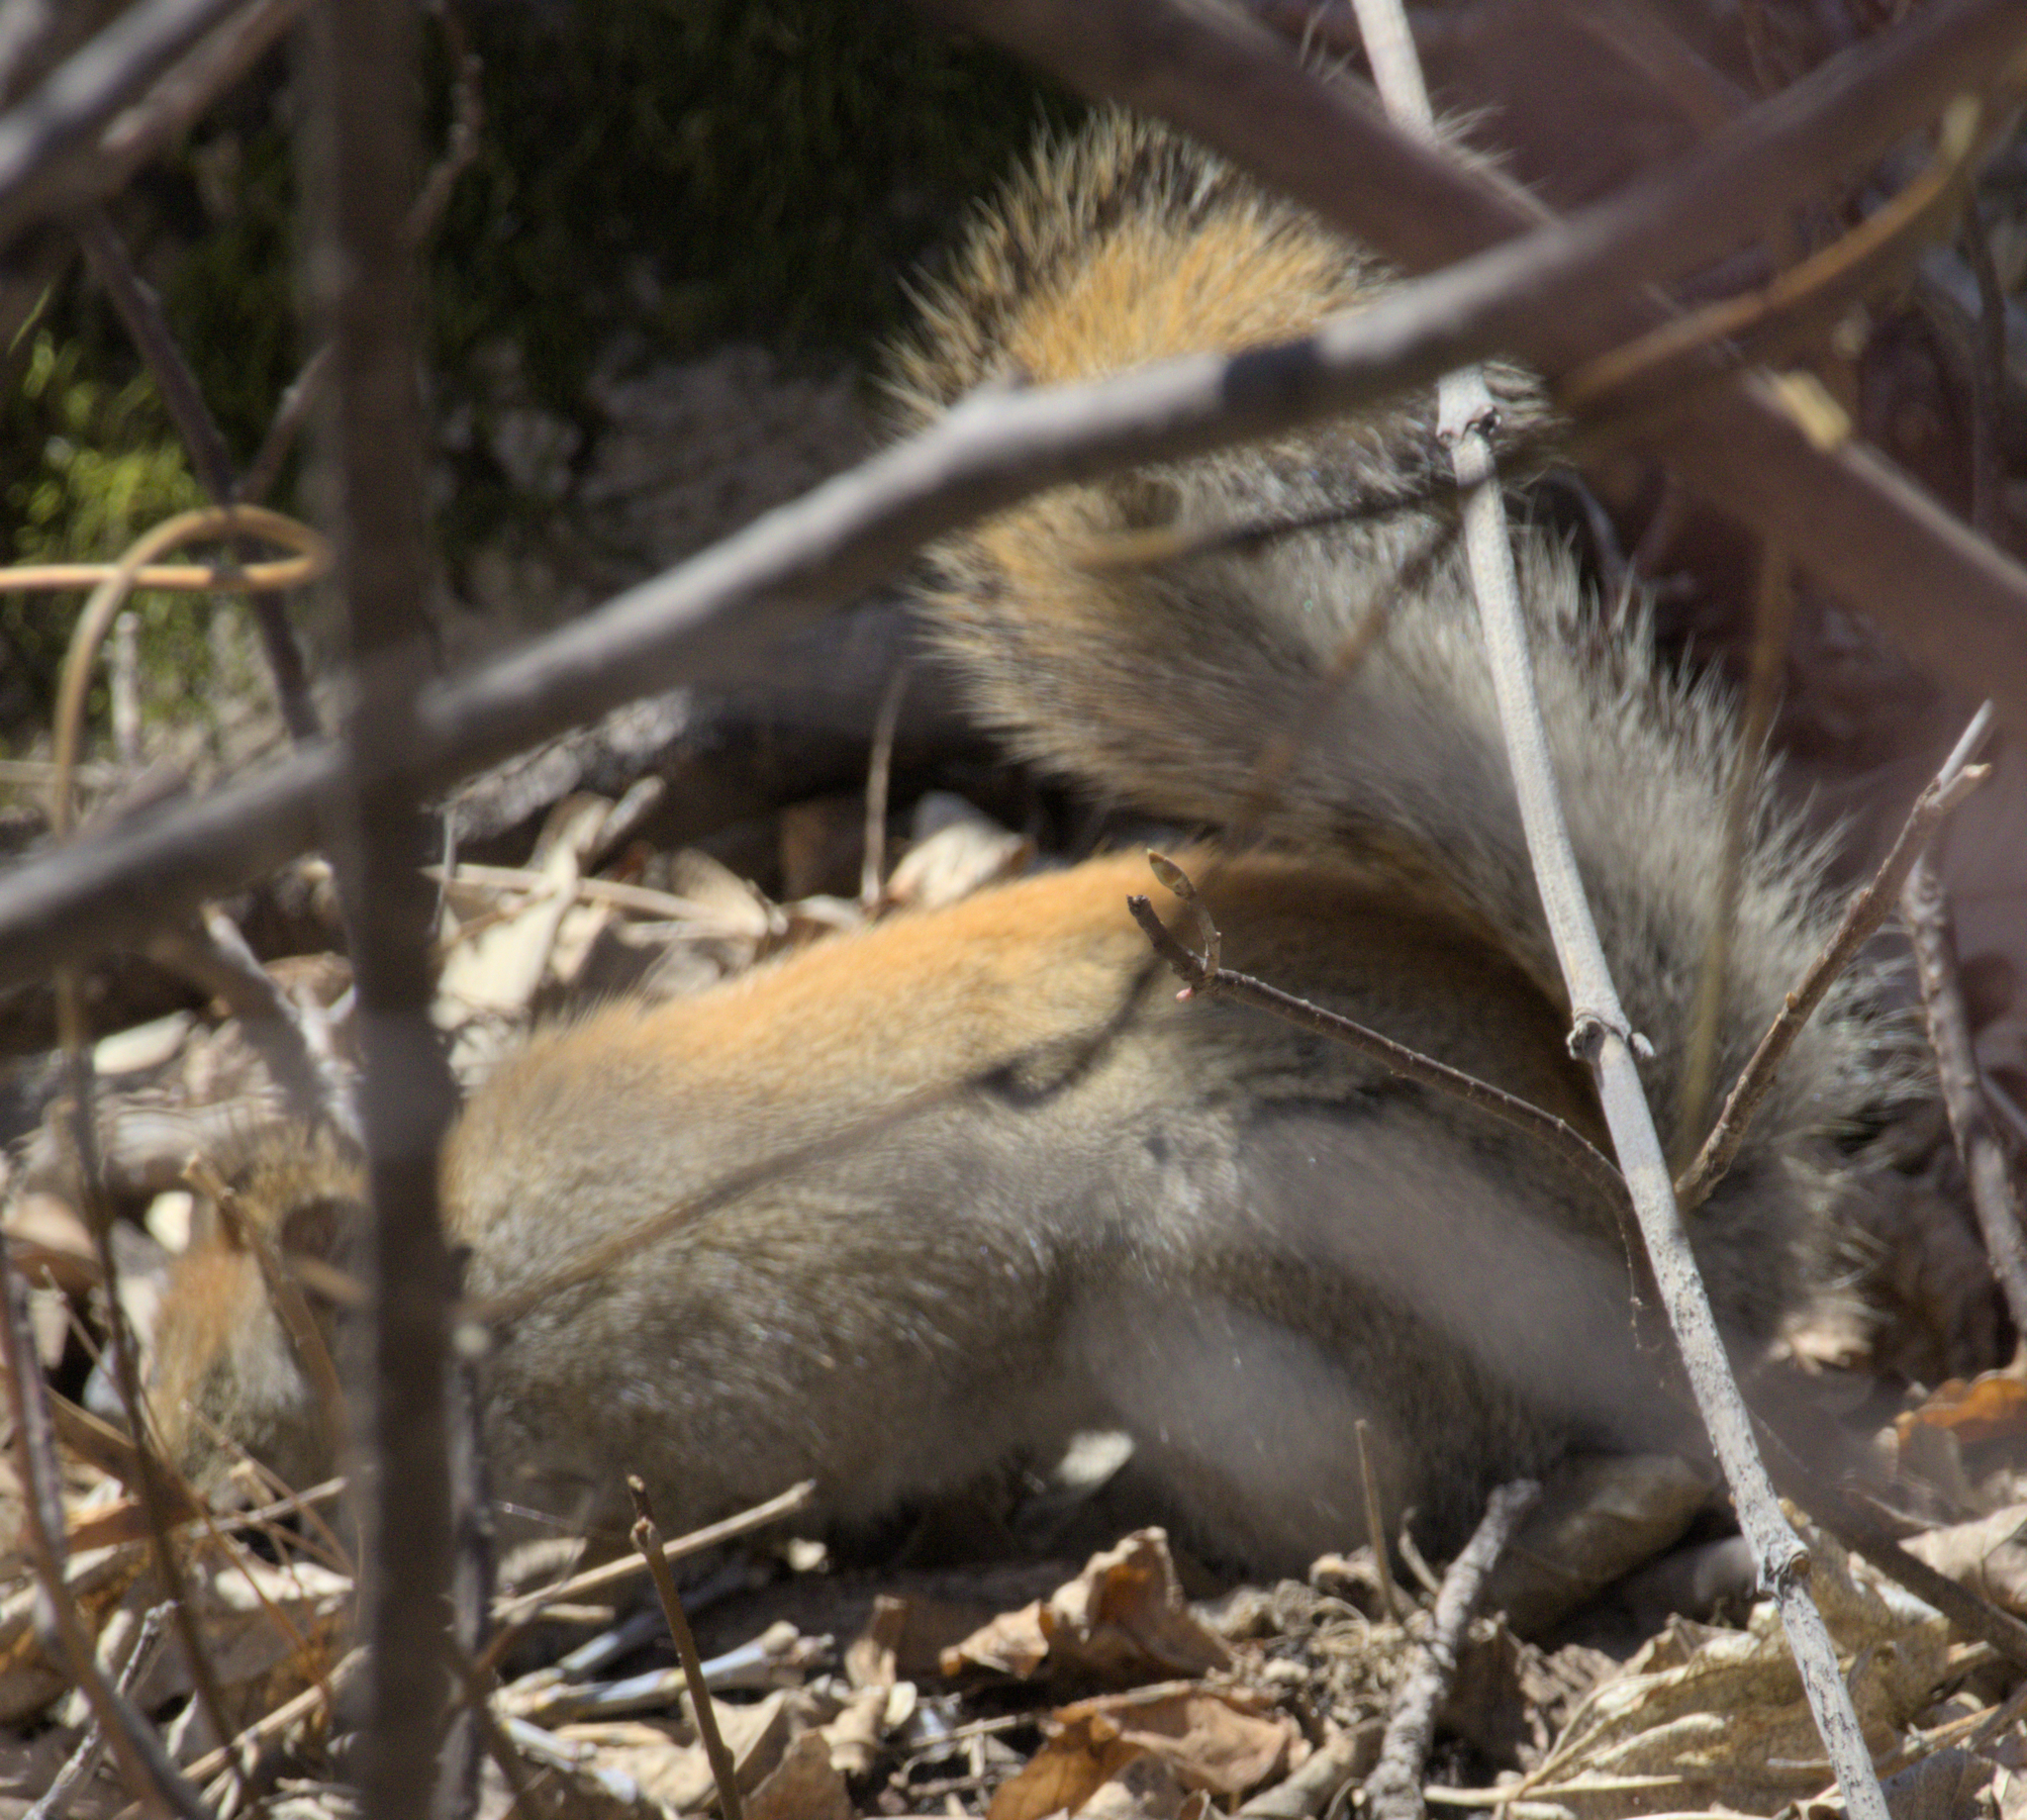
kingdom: Animalia
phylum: Chordata
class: Mammalia
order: Rodentia
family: Sciuridae
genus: Tamiasciurus
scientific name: Tamiasciurus hudsonicus
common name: Red squirrel
